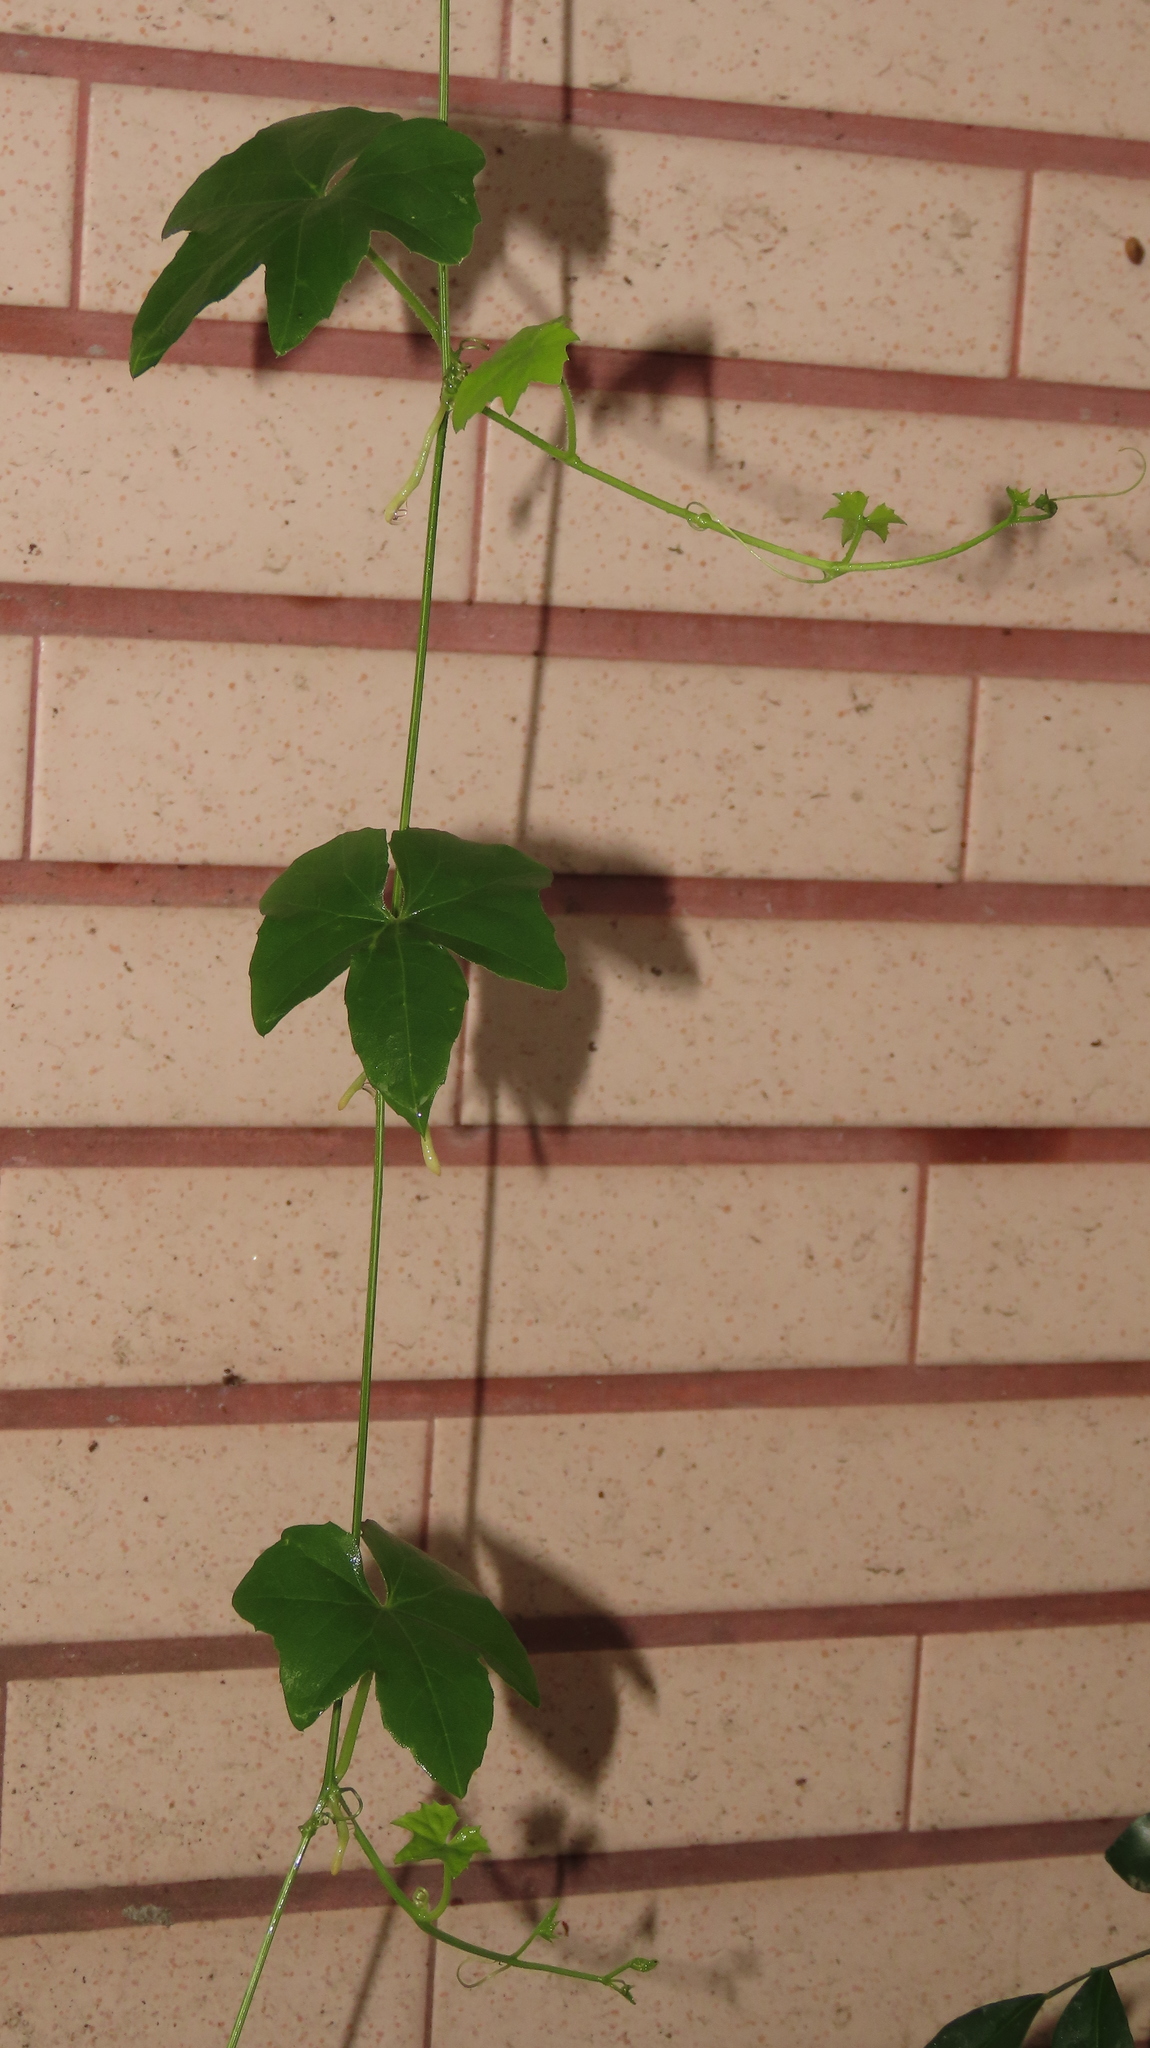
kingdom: Plantae
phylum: Tracheophyta
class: Magnoliopsida
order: Cucurbitales
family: Cucurbitaceae
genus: Melothria
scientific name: Melothria pendula
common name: Creeping-cucumber
